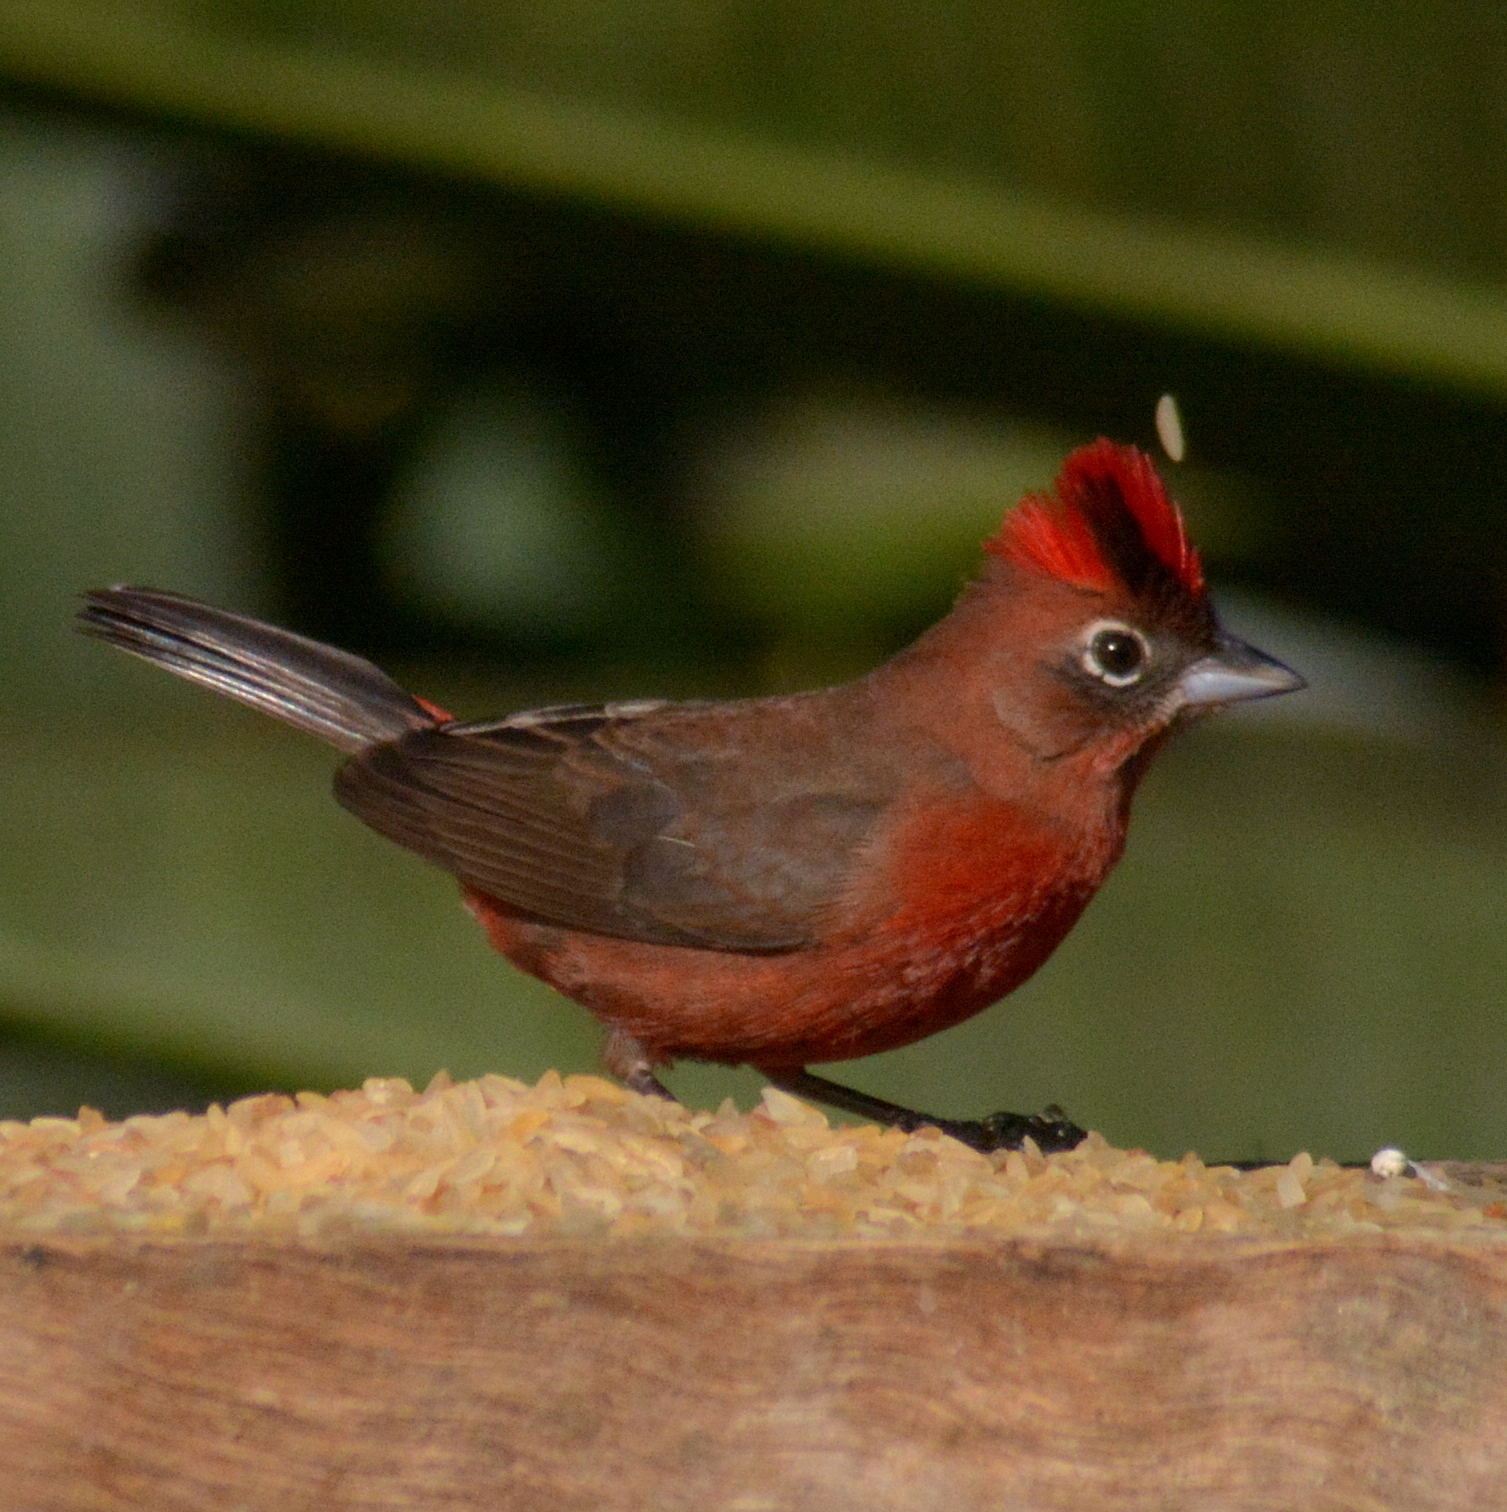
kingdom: Animalia
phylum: Chordata
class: Aves
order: Passeriformes
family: Thraupidae
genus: Coryphospingus
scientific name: Coryphospingus cucullatus
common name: Red pileated finch
